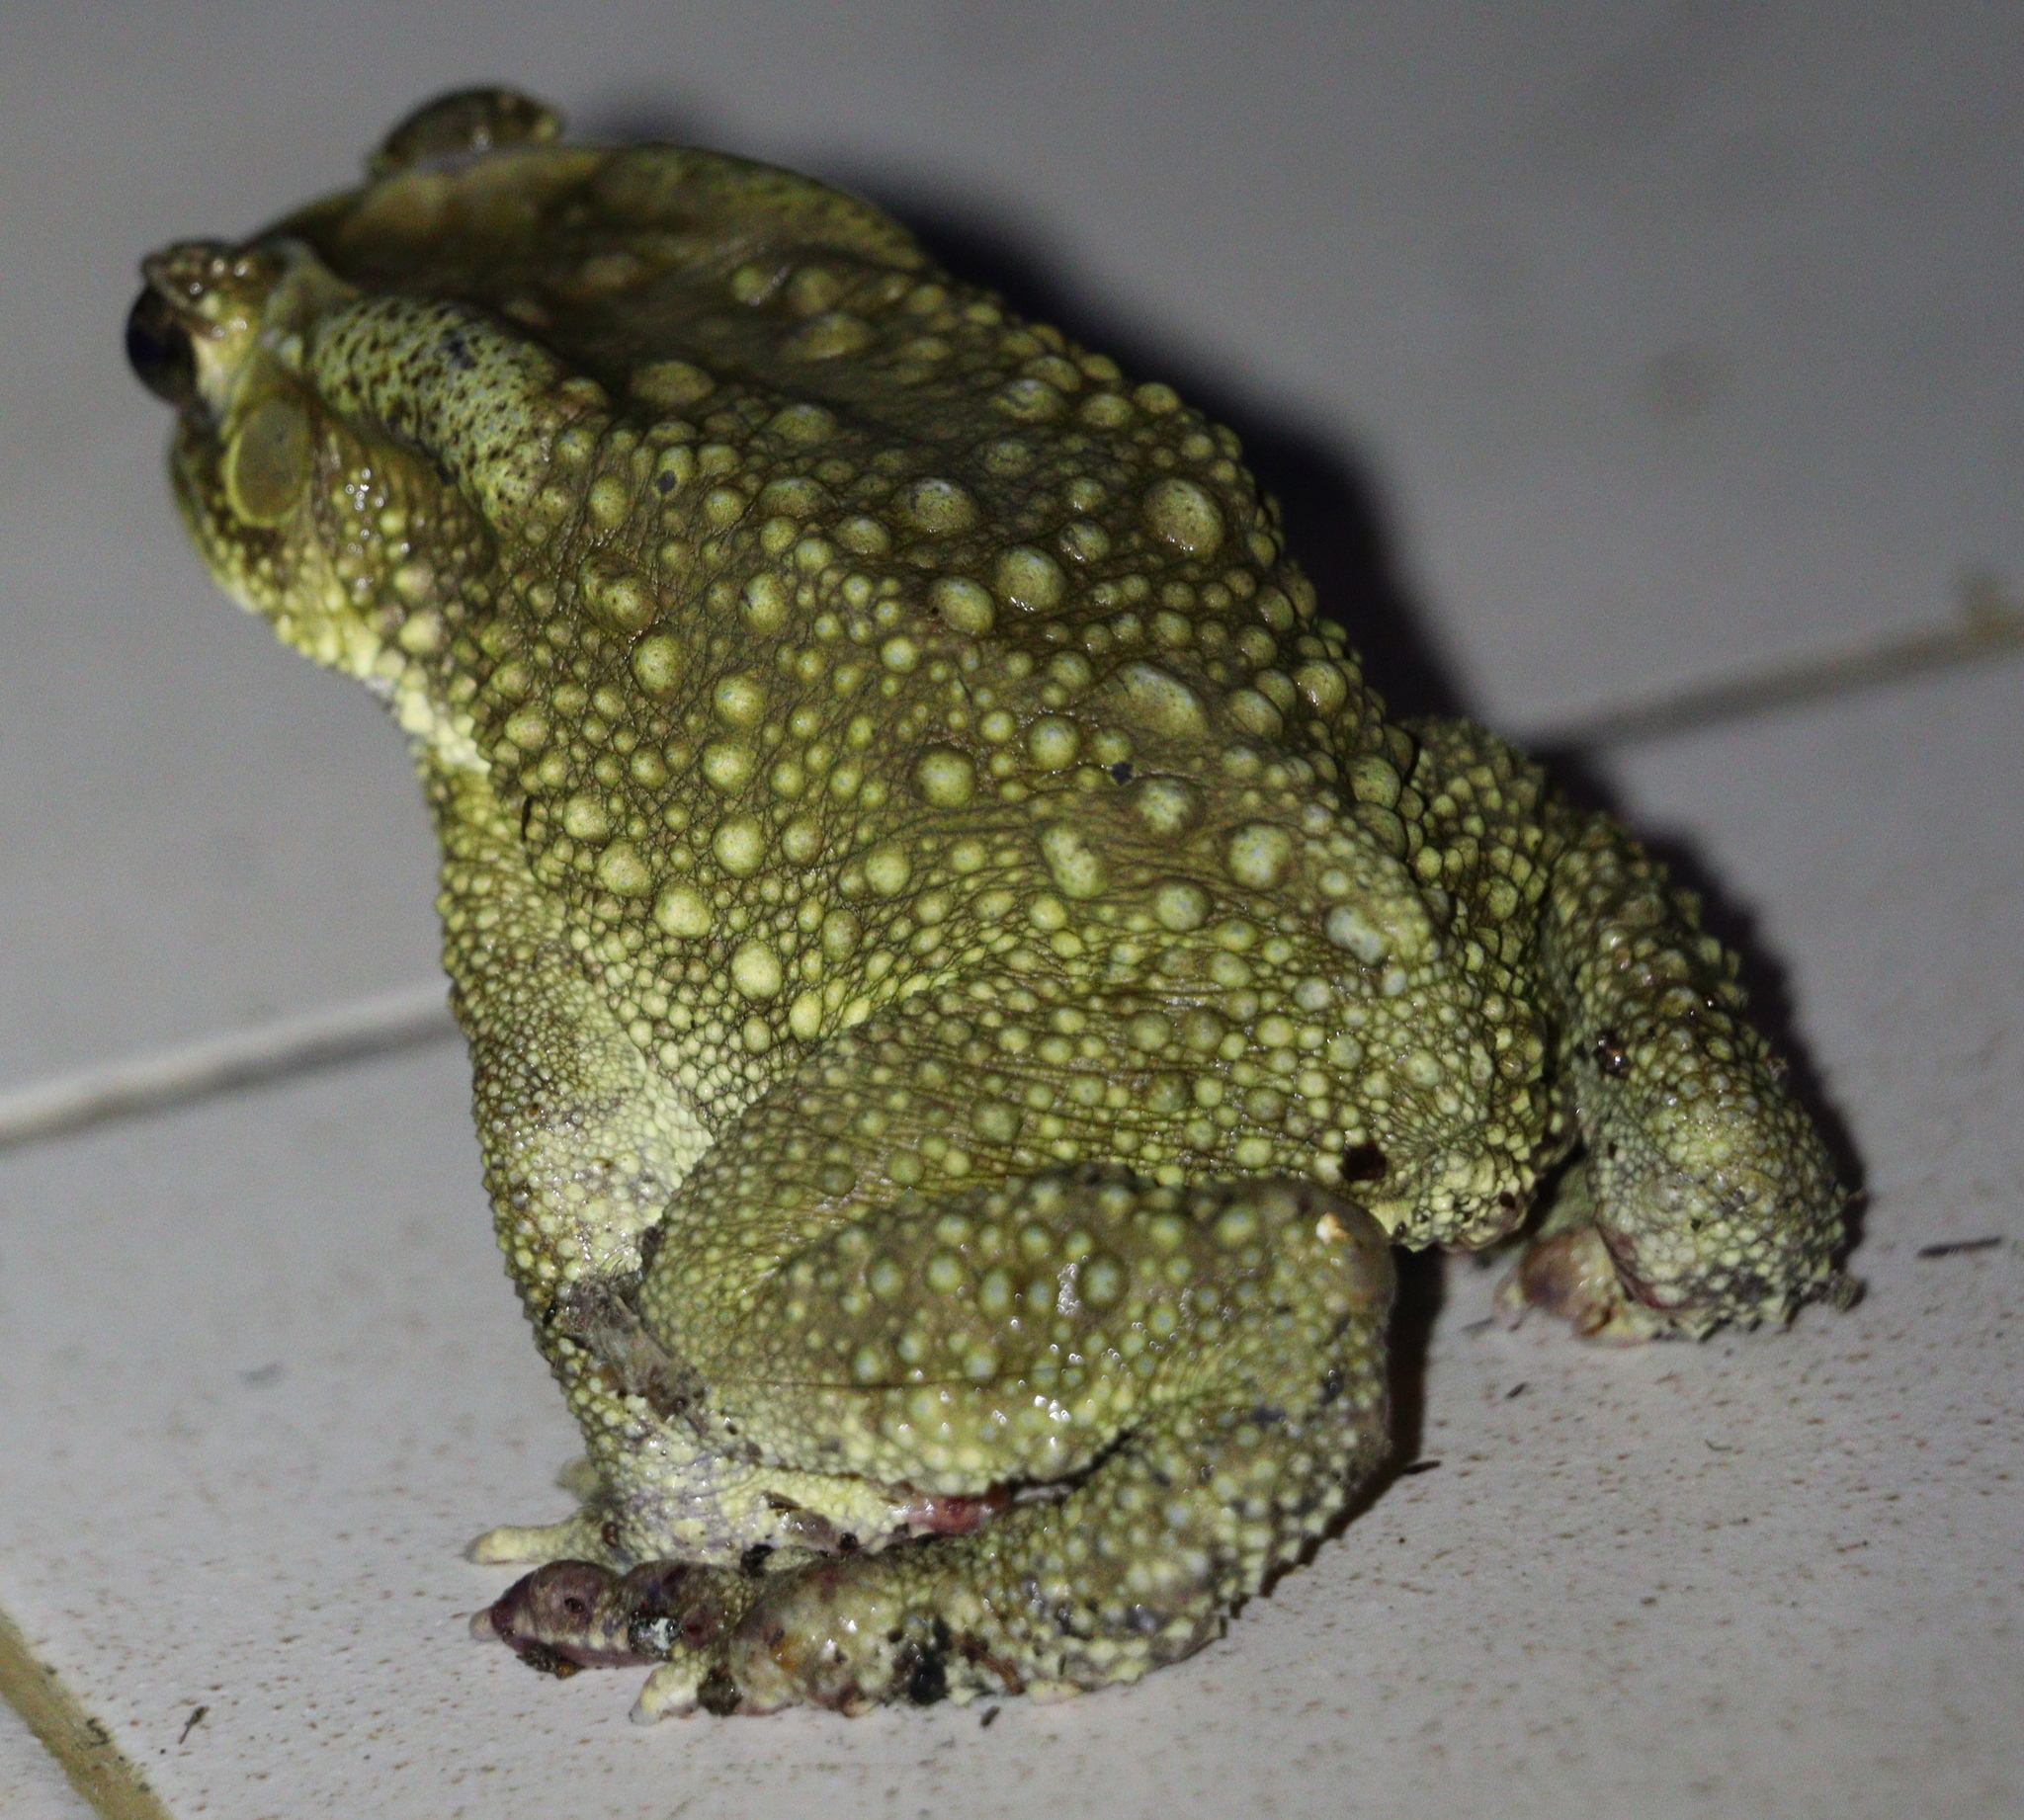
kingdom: Animalia
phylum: Chordata
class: Amphibia
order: Anura
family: Bufonidae
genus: Duttaphrynus
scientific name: Duttaphrynus melanostictus
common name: Common sunda toad
